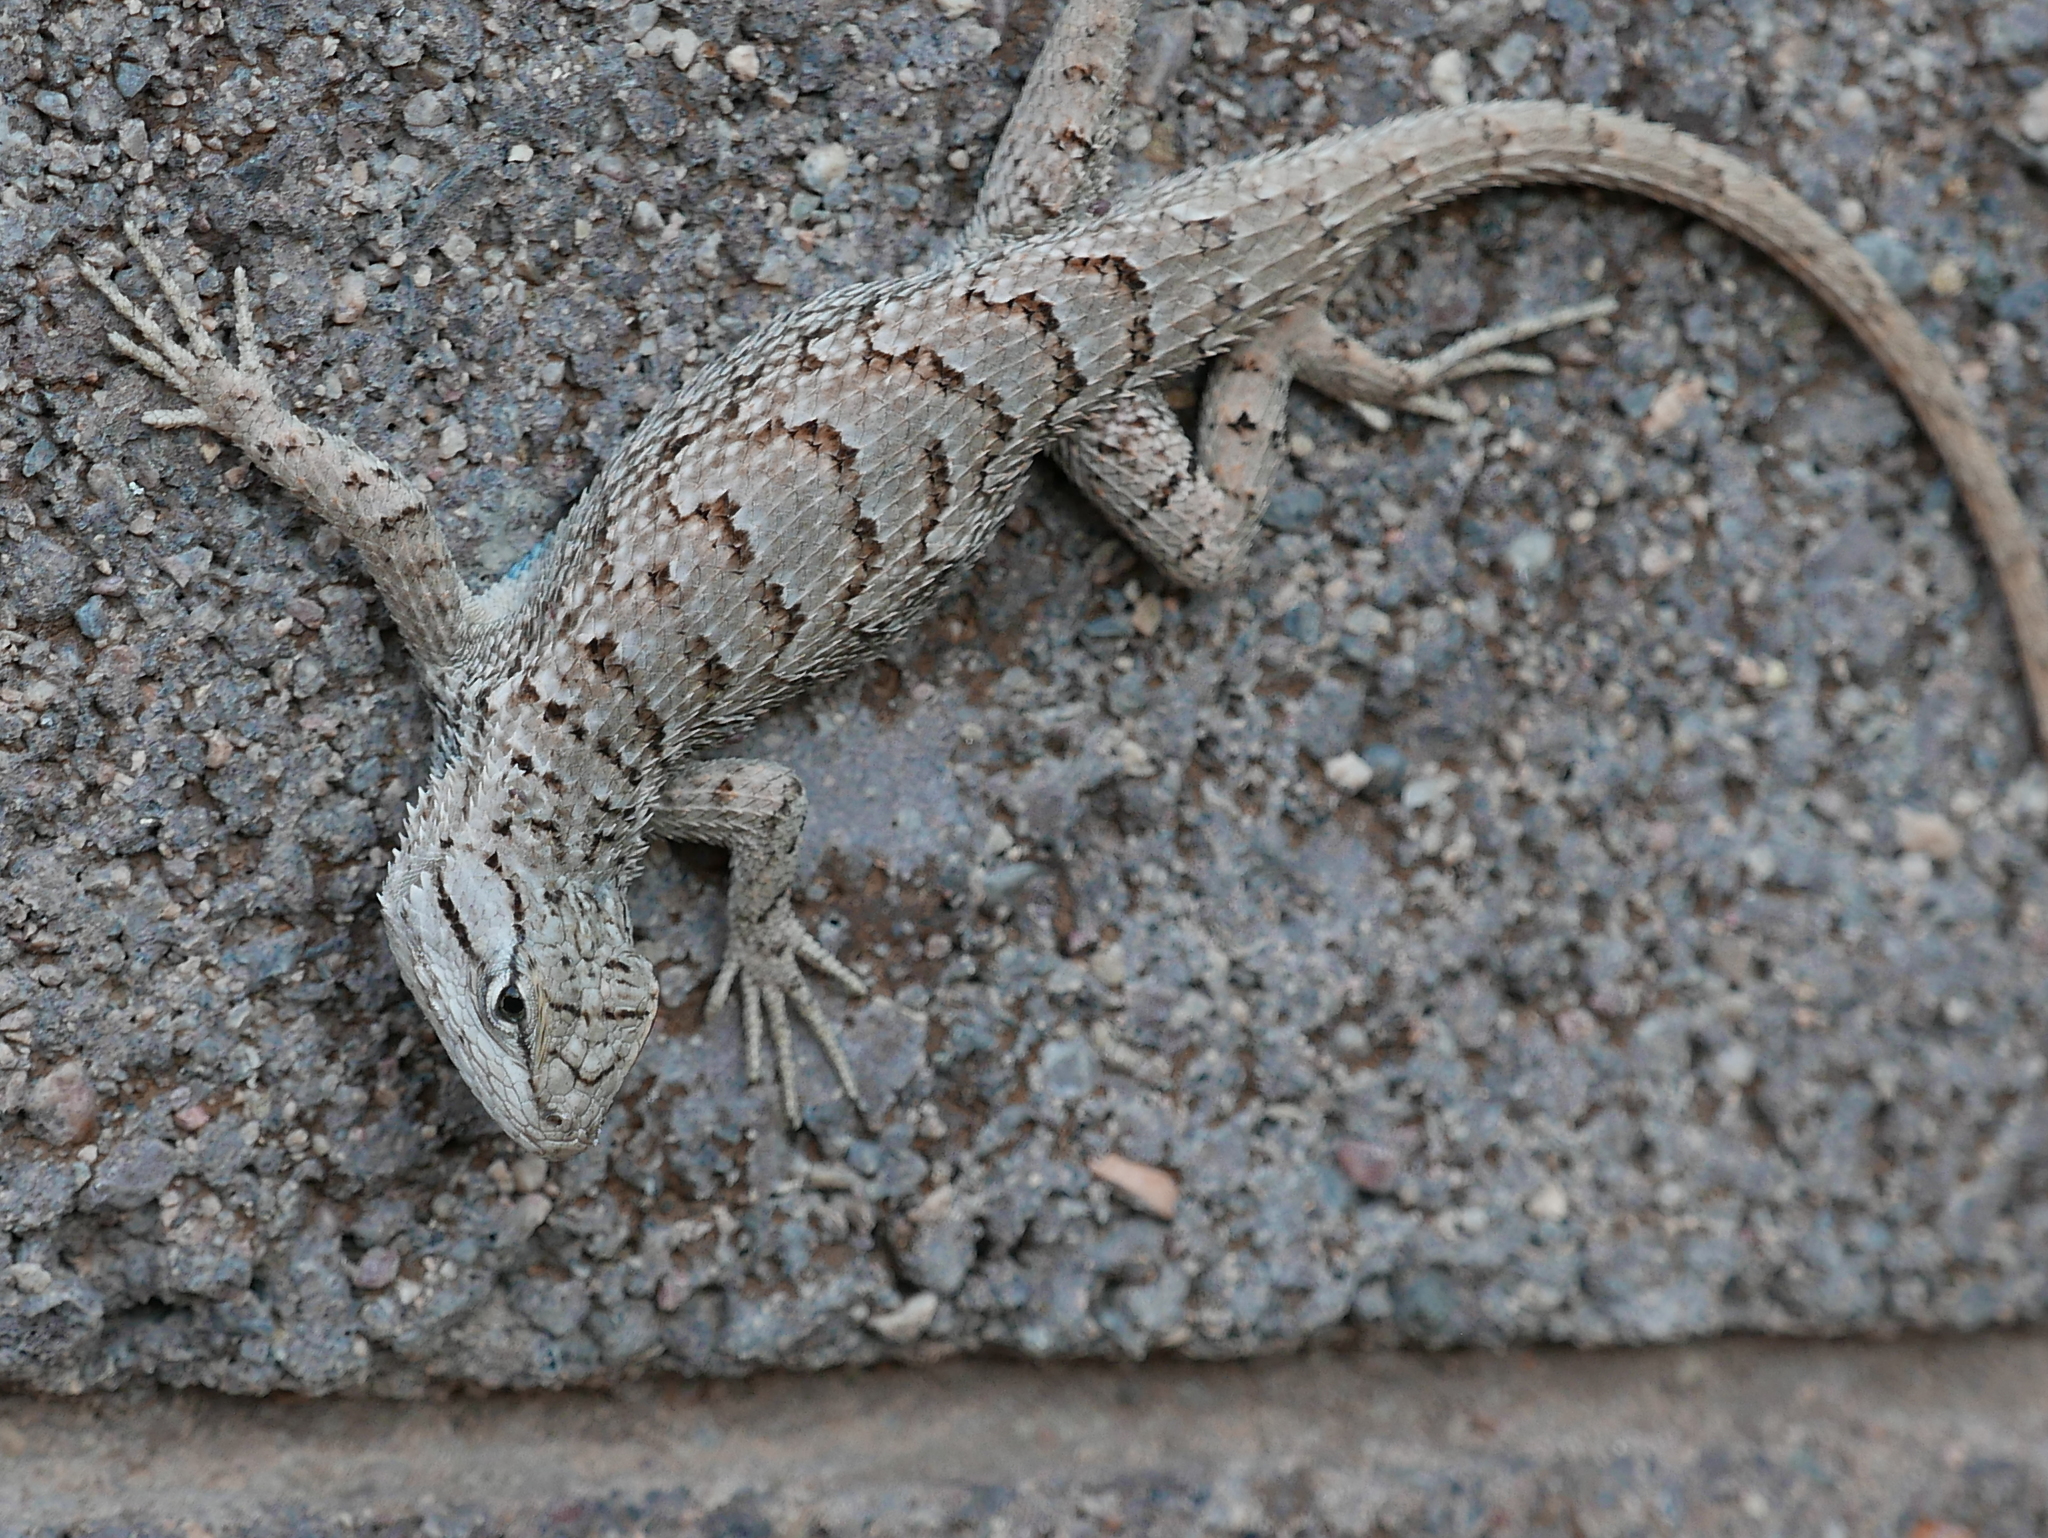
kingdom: Animalia
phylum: Chordata
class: Squamata
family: Phrynosomatidae
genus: Sceloporus
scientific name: Sceloporus tristichus
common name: Plateau fence lizard
